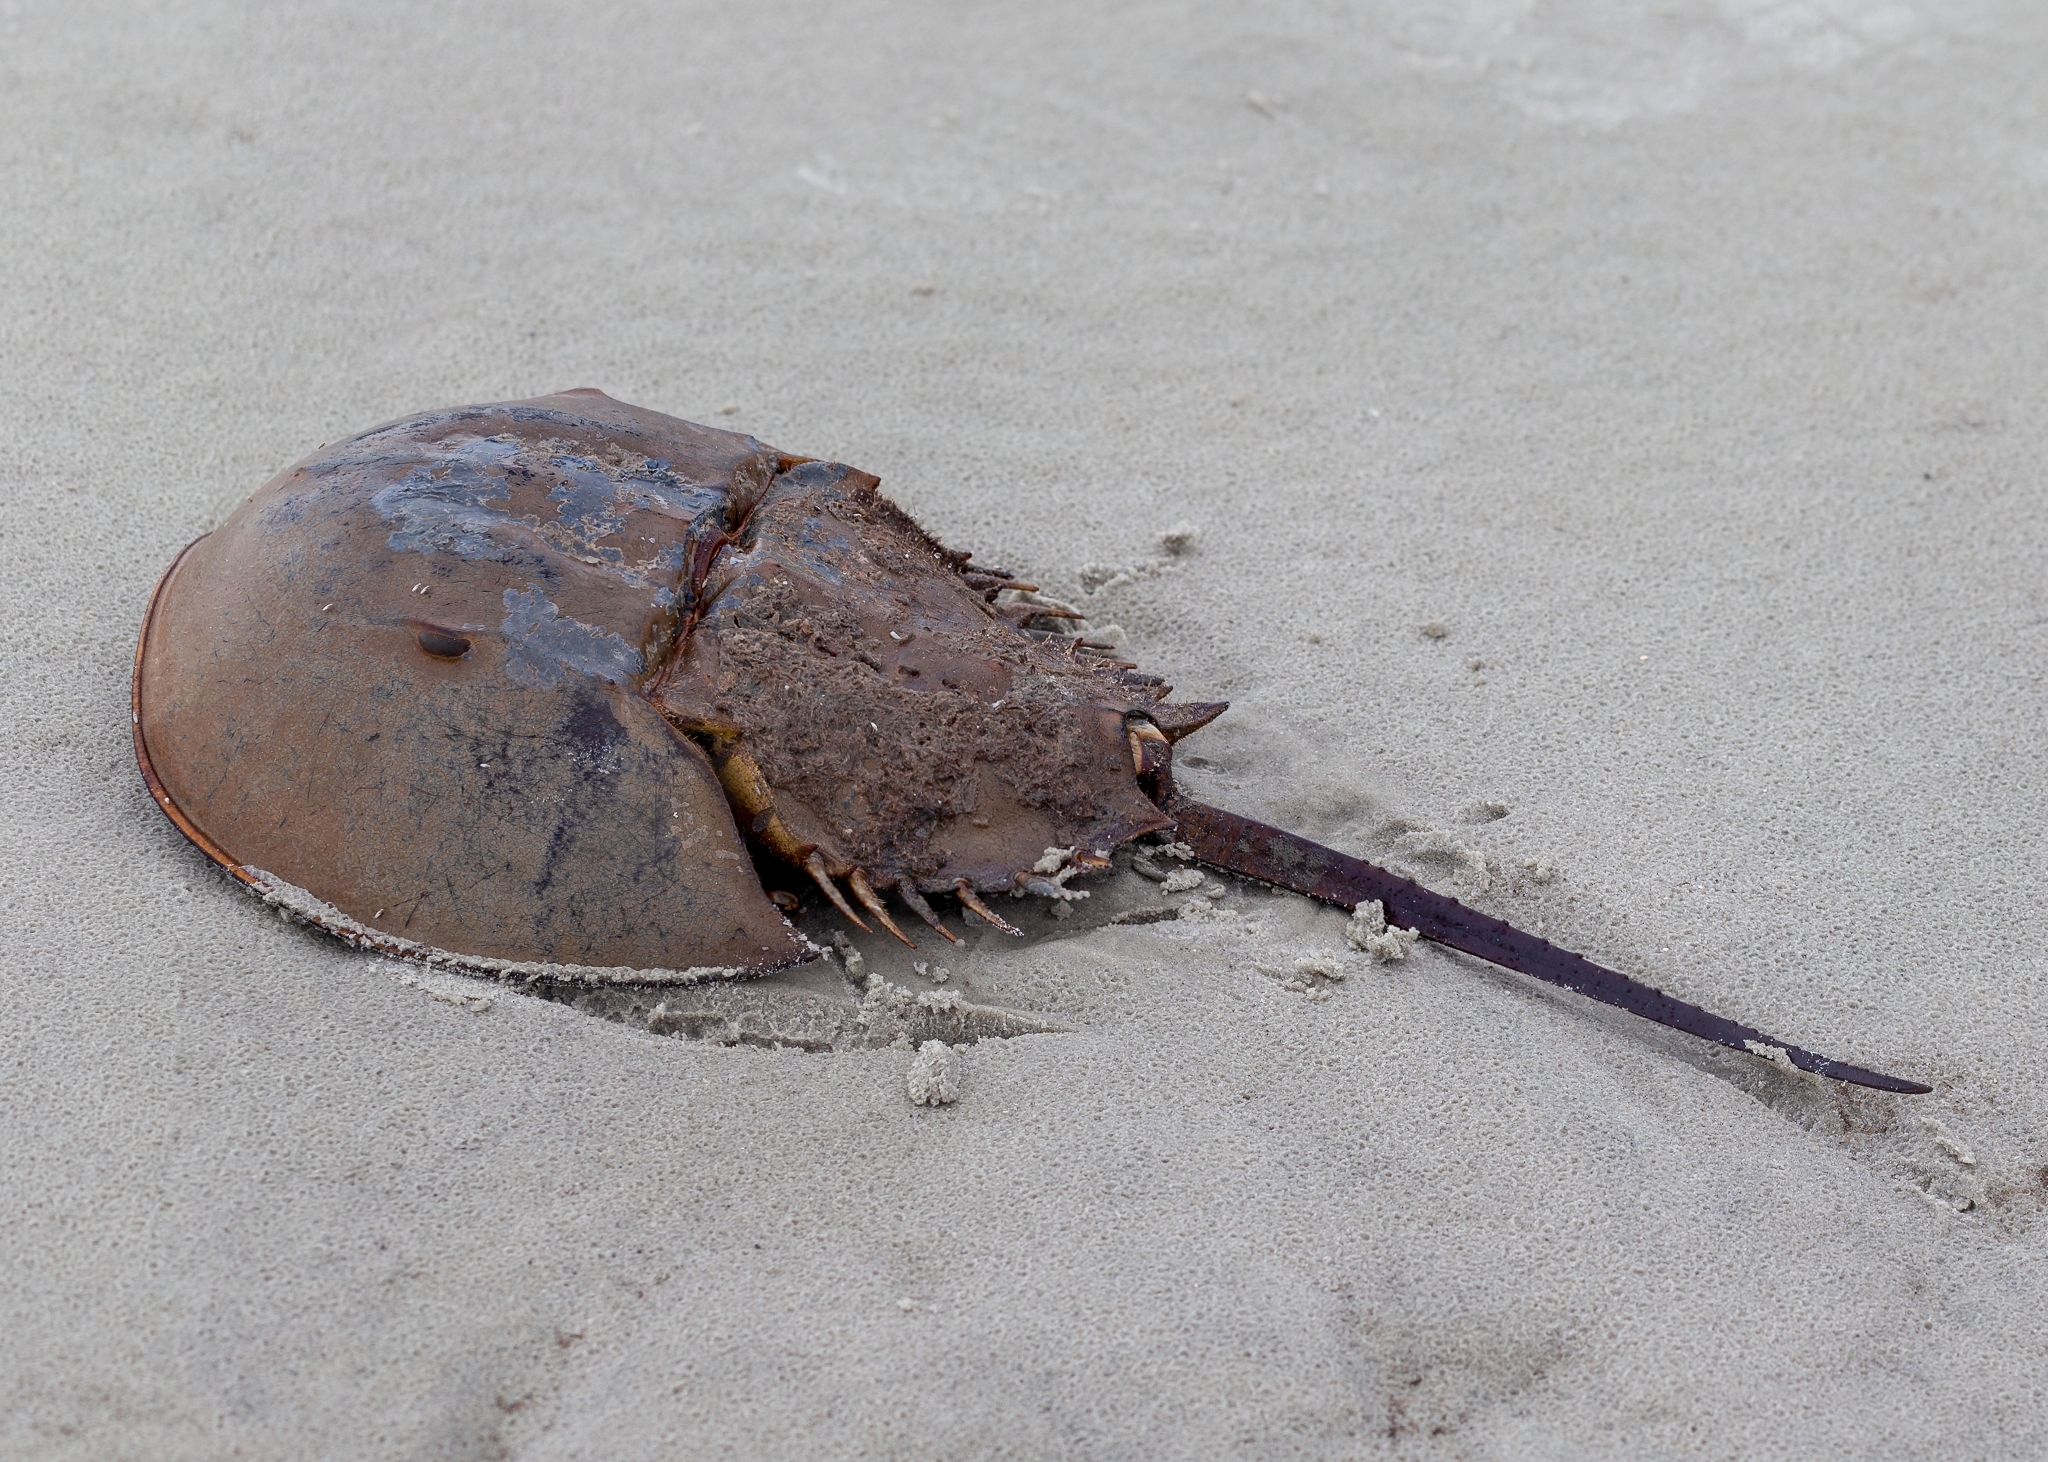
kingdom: Animalia
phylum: Arthropoda
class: Merostomata
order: Xiphosurida
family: Limulidae
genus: Limulus
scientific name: Limulus polyphemus
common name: Horseshoe crab
